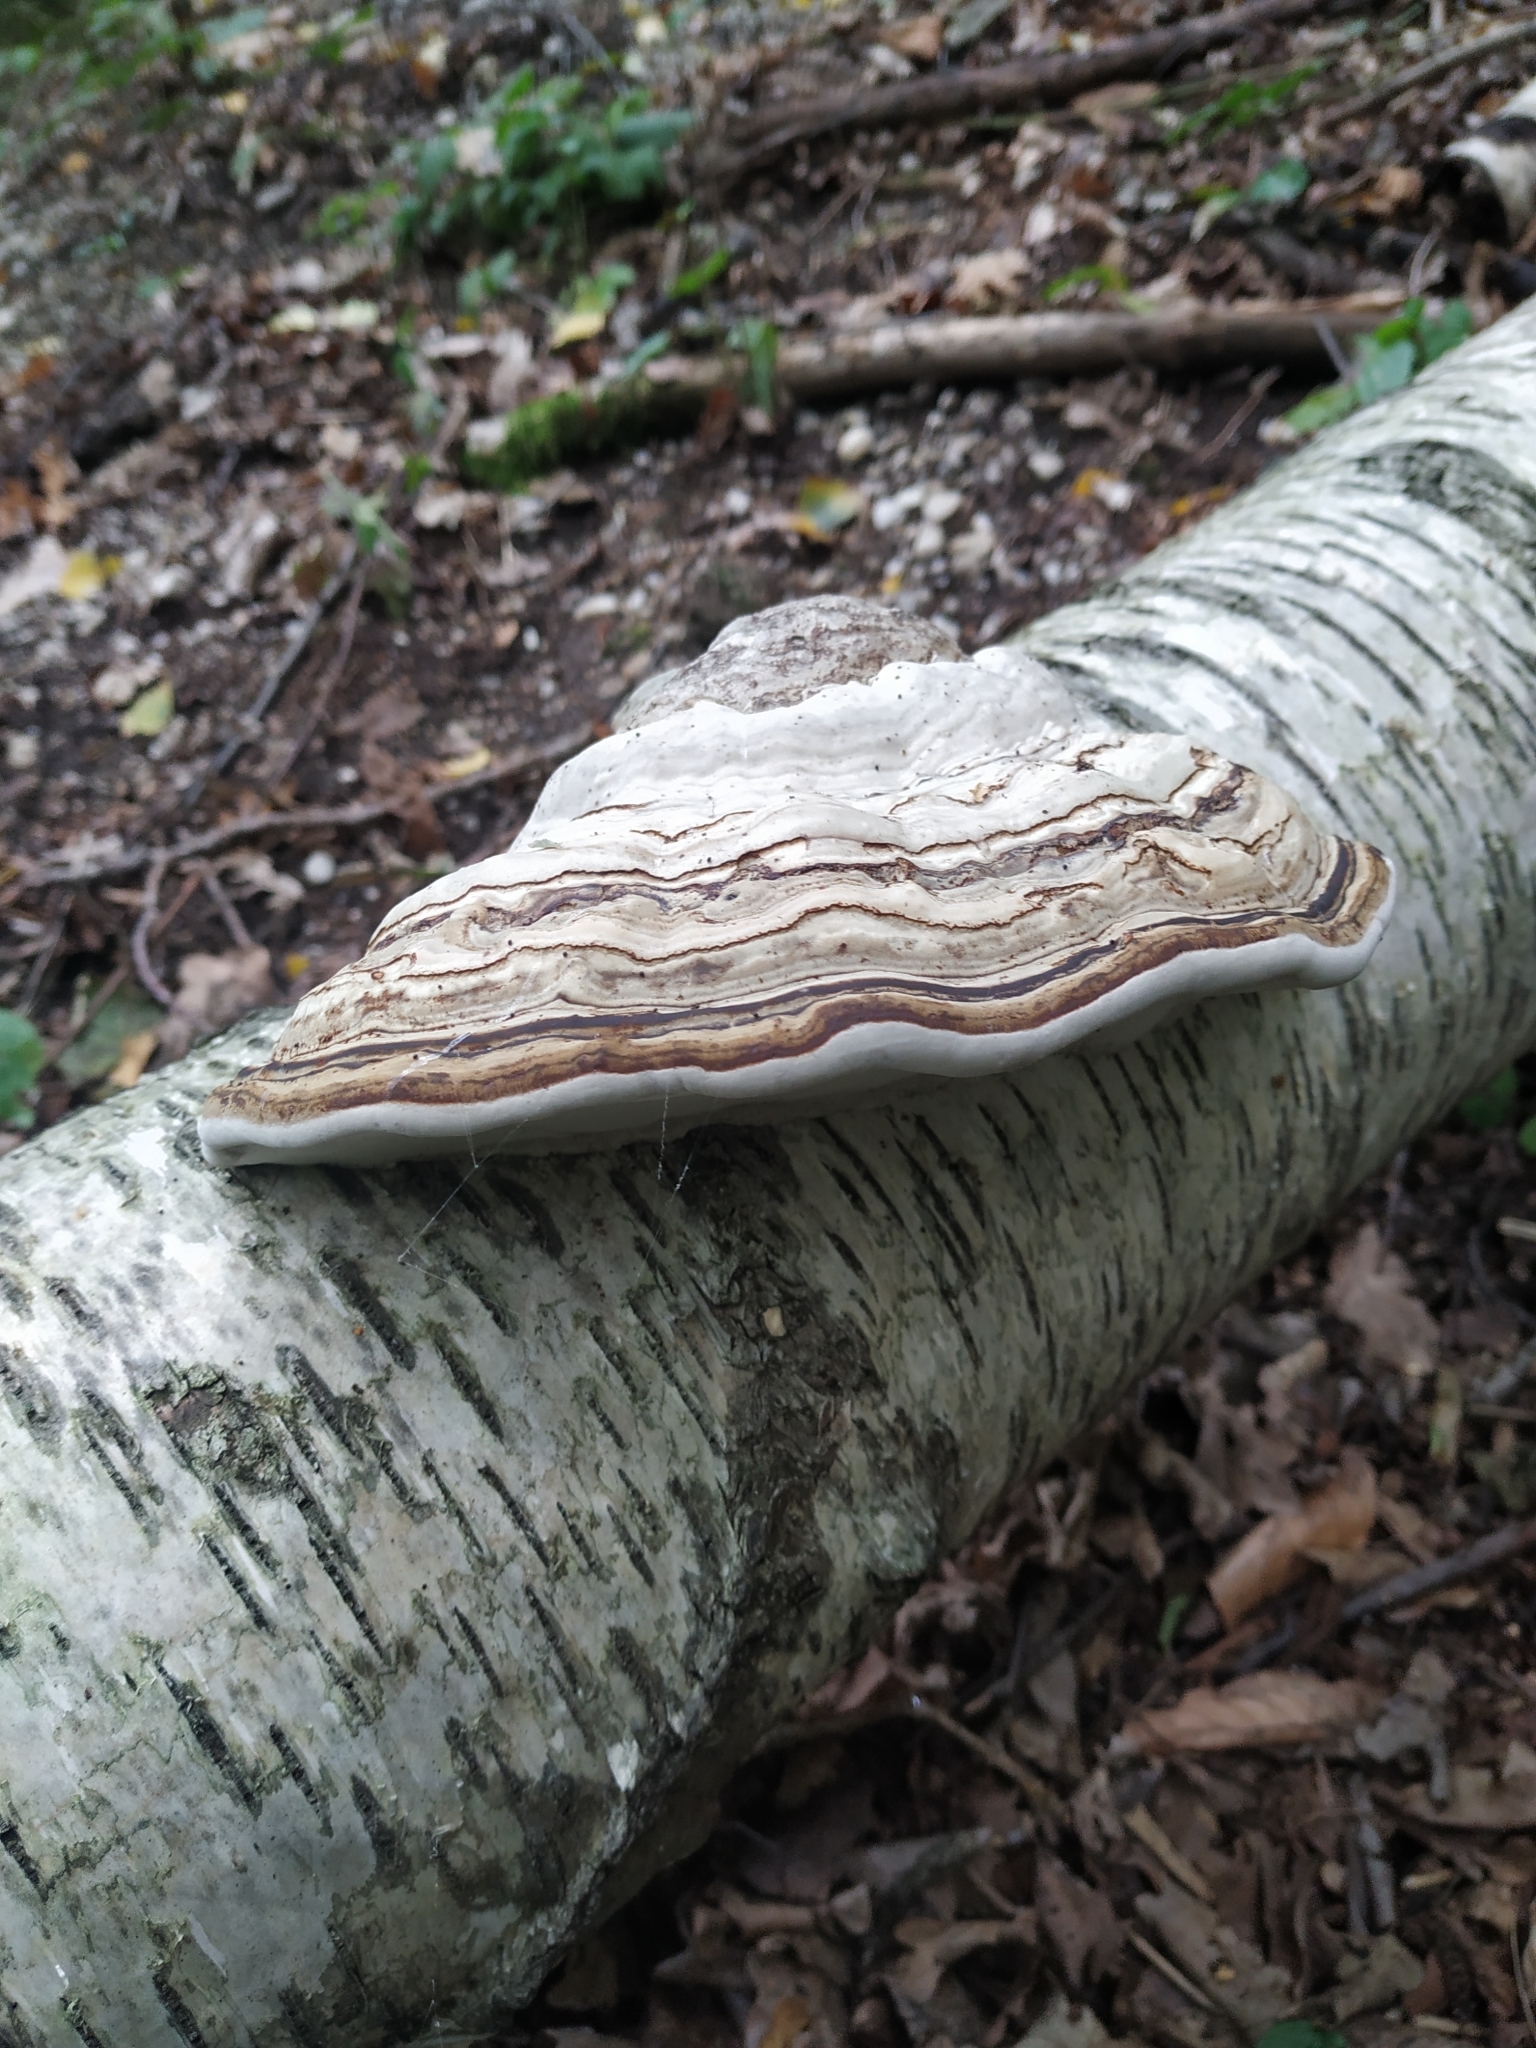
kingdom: Fungi
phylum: Basidiomycota
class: Agaricomycetes
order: Polyporales
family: Polyporaceae
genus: Fomes
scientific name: Fomes fomentarius
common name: Hoof fungus
